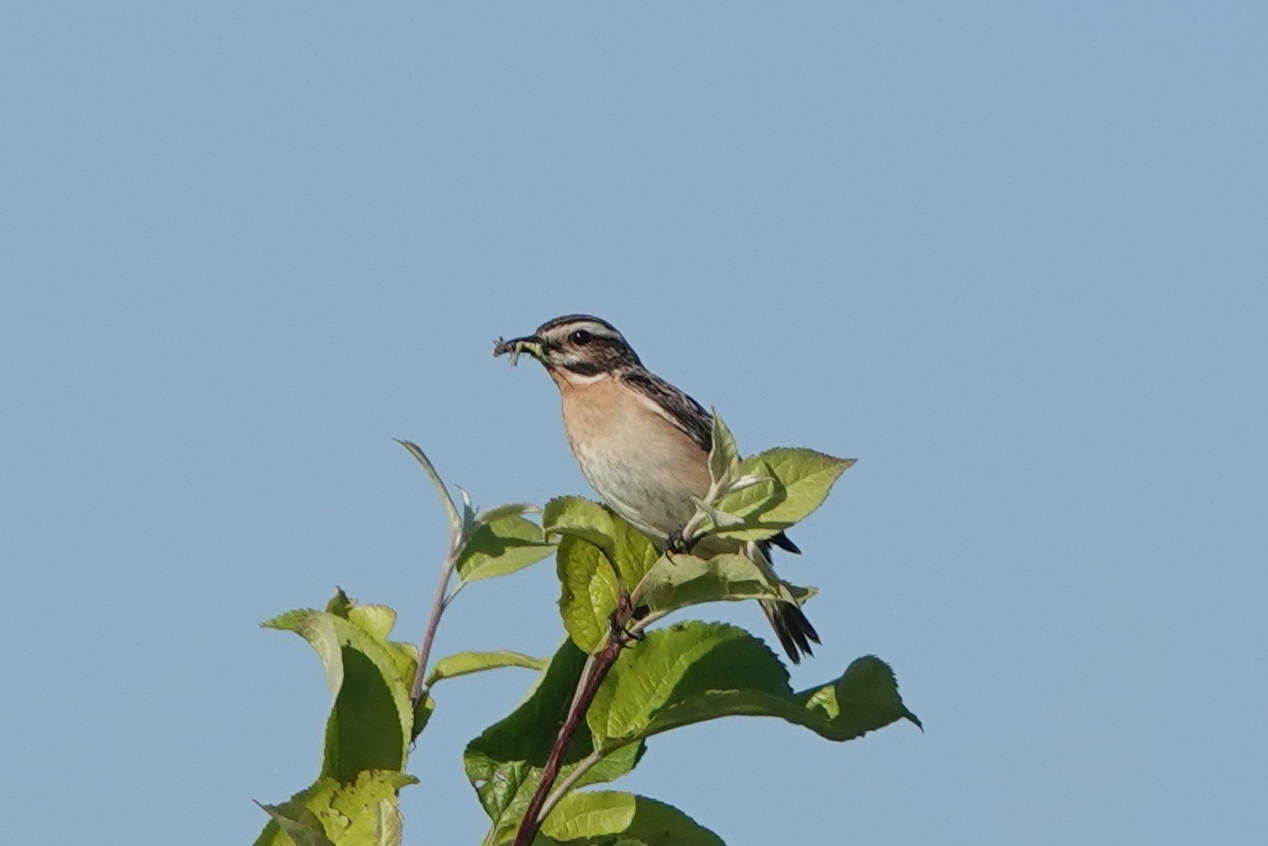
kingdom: Animalia
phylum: Chordata
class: Aves
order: Passeriformes
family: Muscicapidae
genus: Saxicola
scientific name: Saxicola rubetra
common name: Whinchat
